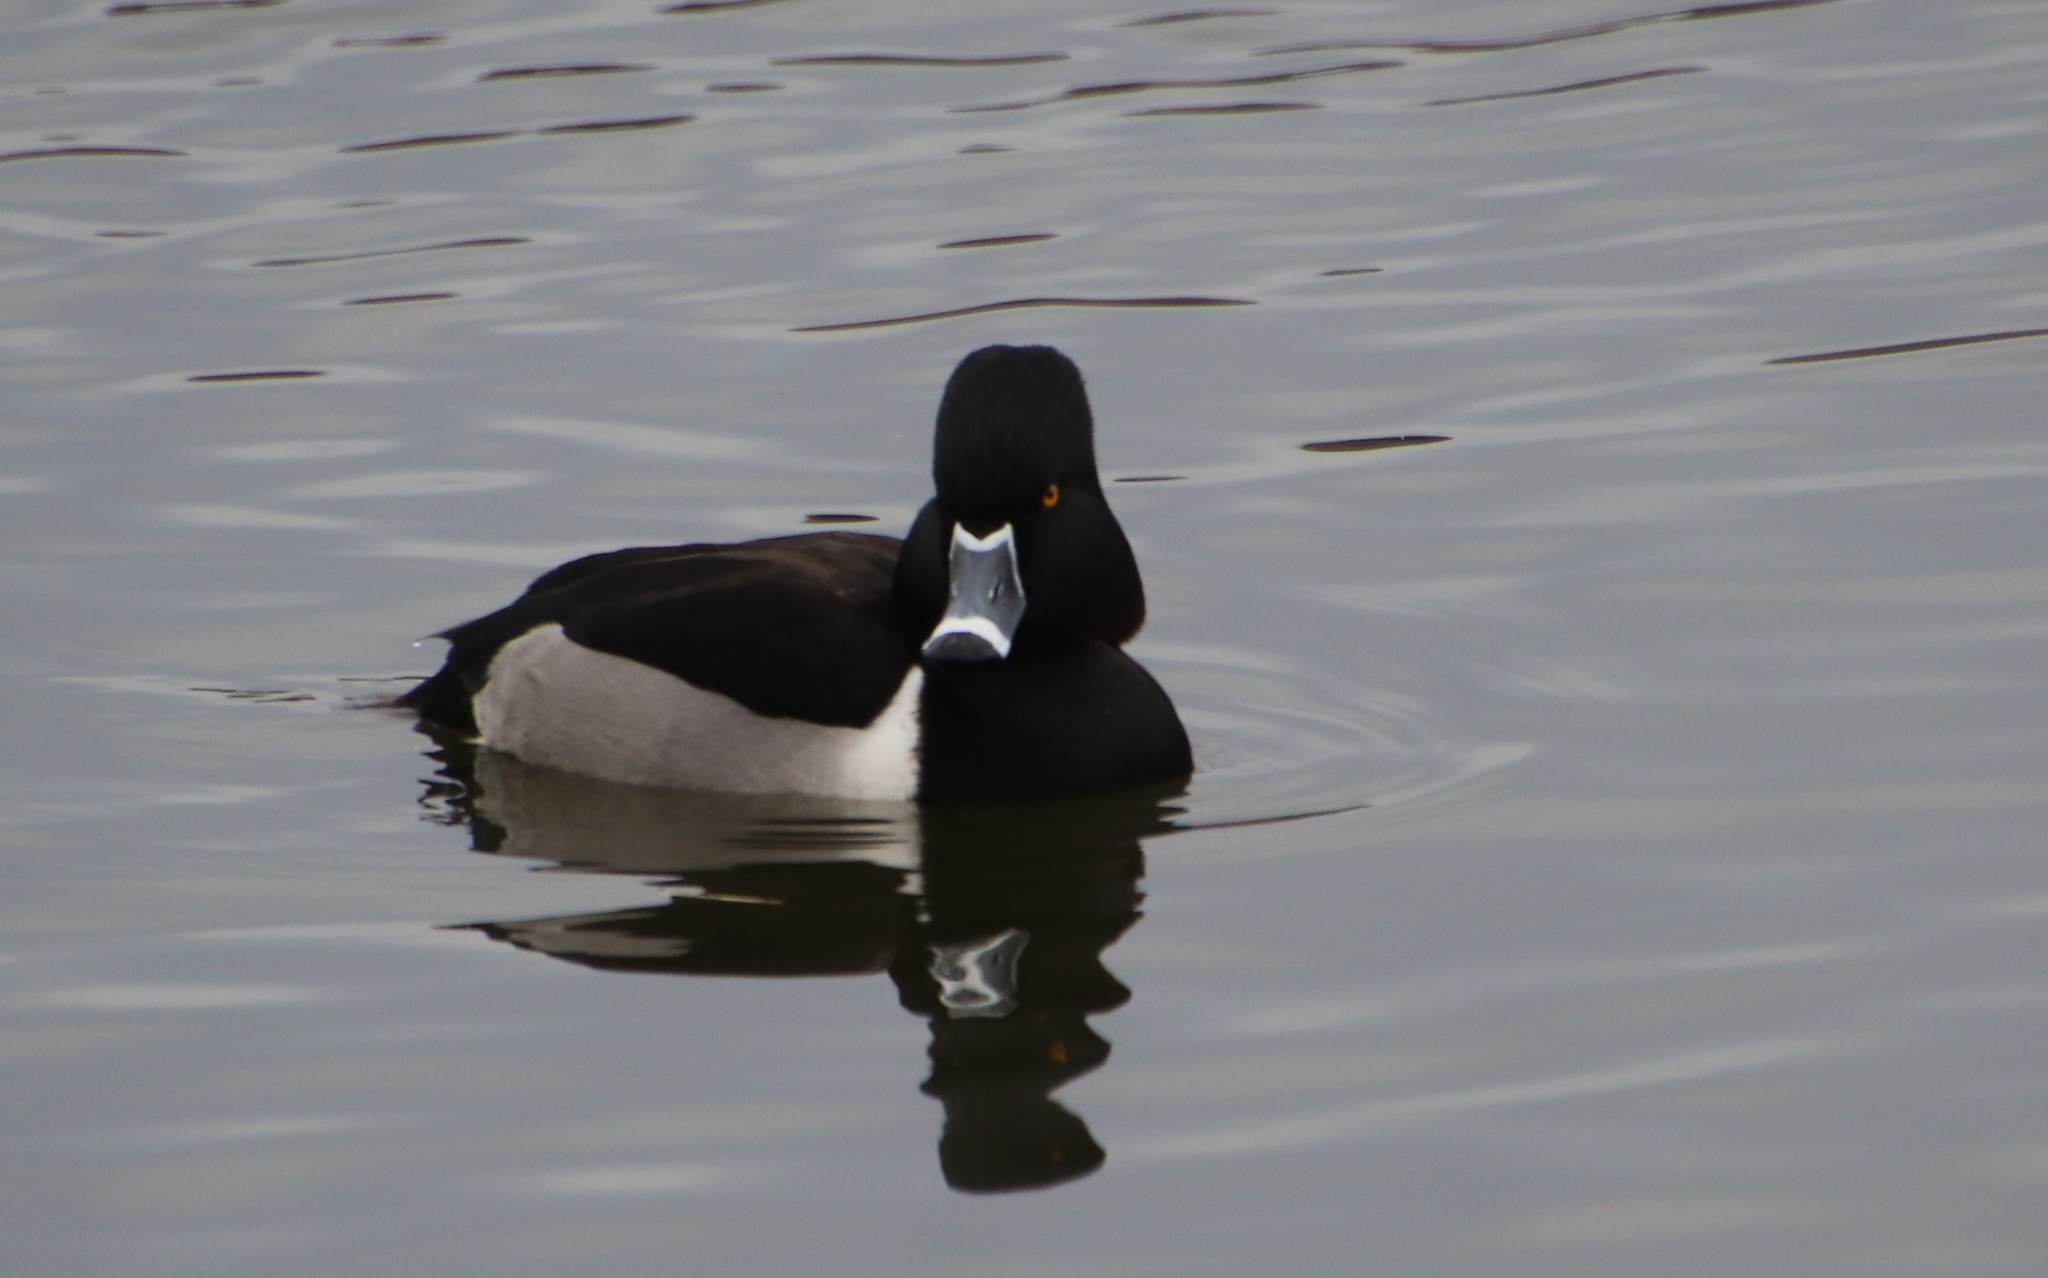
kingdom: Animalia
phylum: Chordata
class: Aves
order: Anseriformes
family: Anatidae
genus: Aythya
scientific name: Aythya collaris
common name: Ring-necked duck
